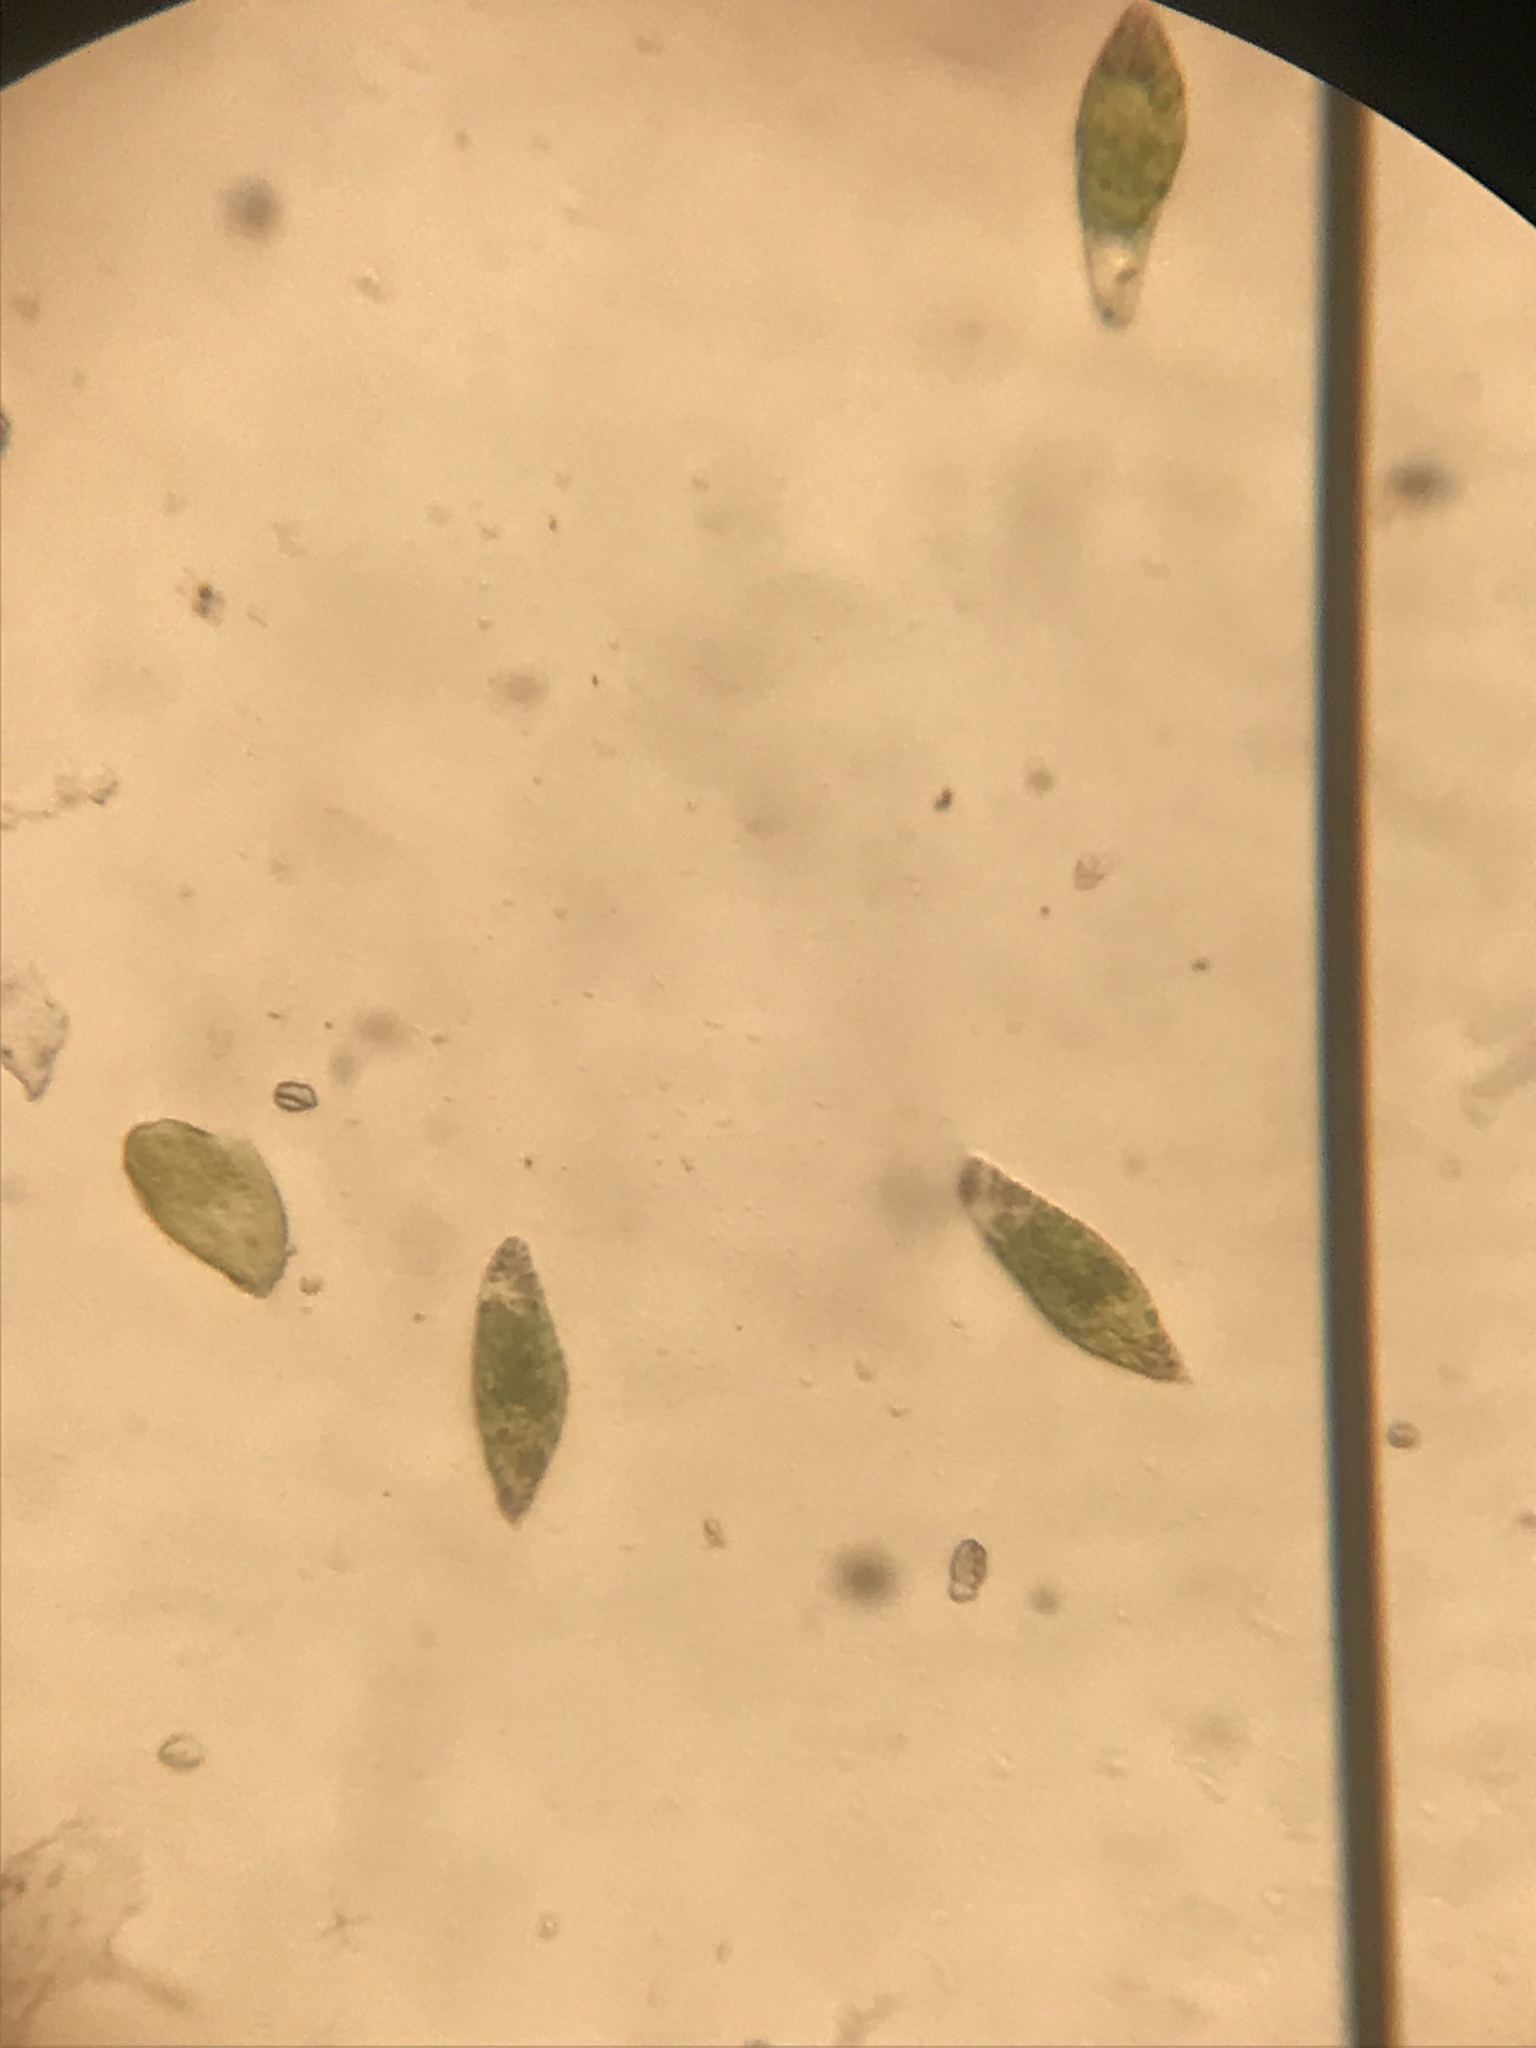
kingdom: Protozoa
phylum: Euglenozoa
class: Euglenoidea
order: Euglenida
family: Euglenaceae
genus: Euglena
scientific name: Euglena viridis
